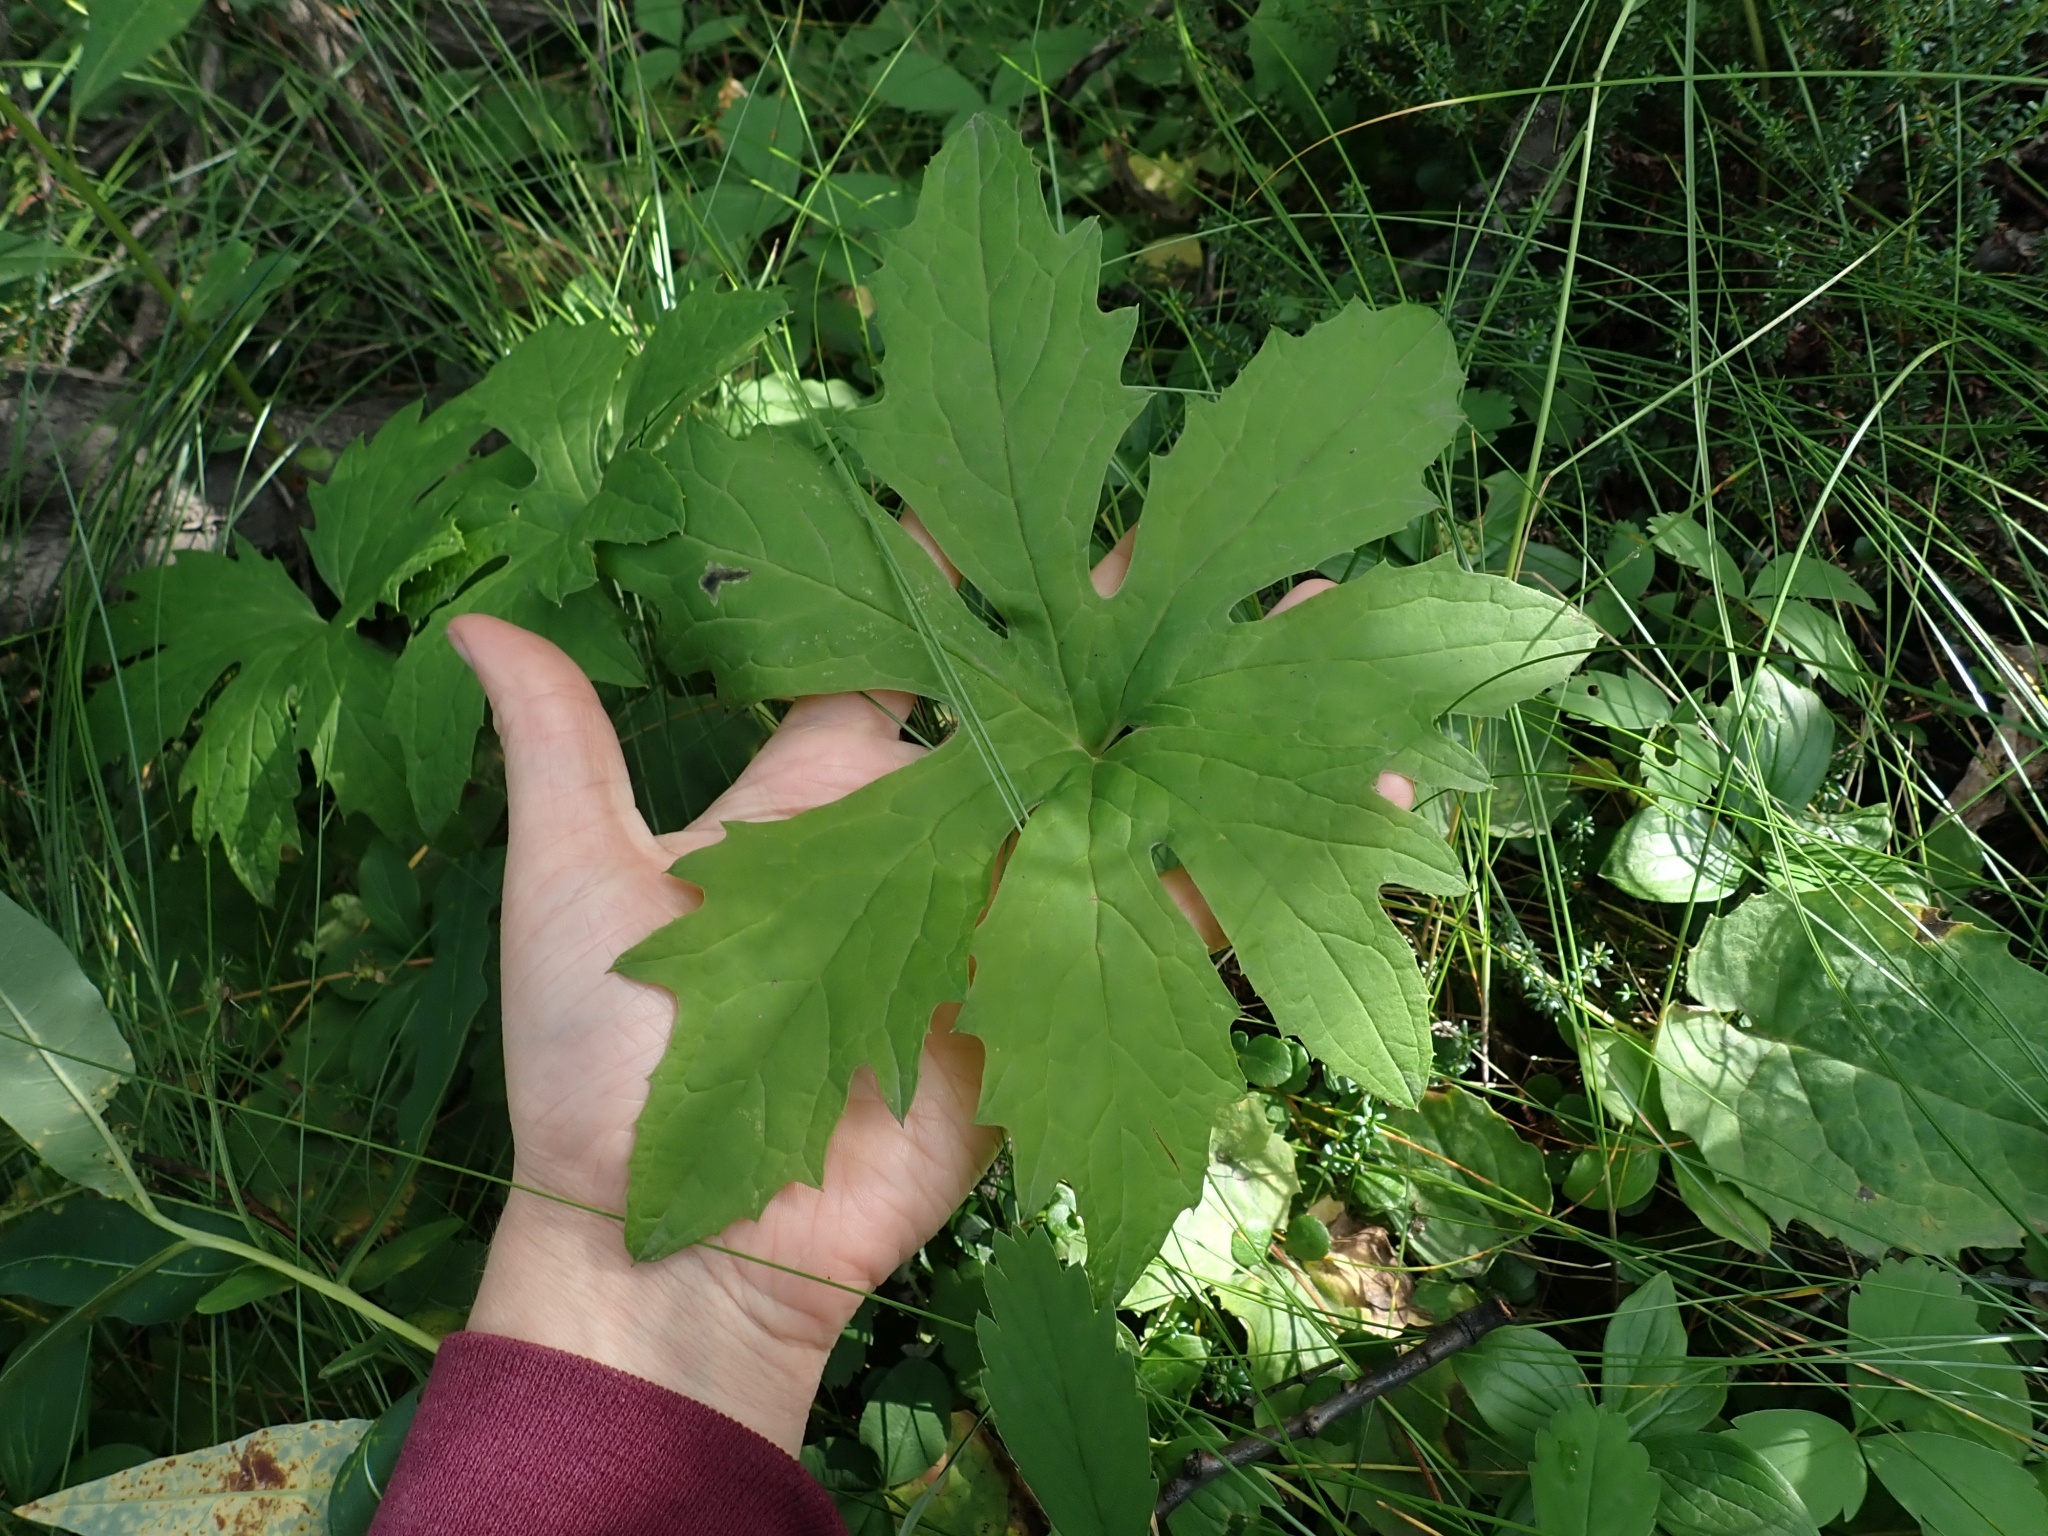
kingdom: Plantae
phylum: Tracheophyta
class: Magnoliopsida
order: Asterales
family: Asteraceae
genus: Petasites
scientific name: Petasites frigidus
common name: Arctic butterbur
